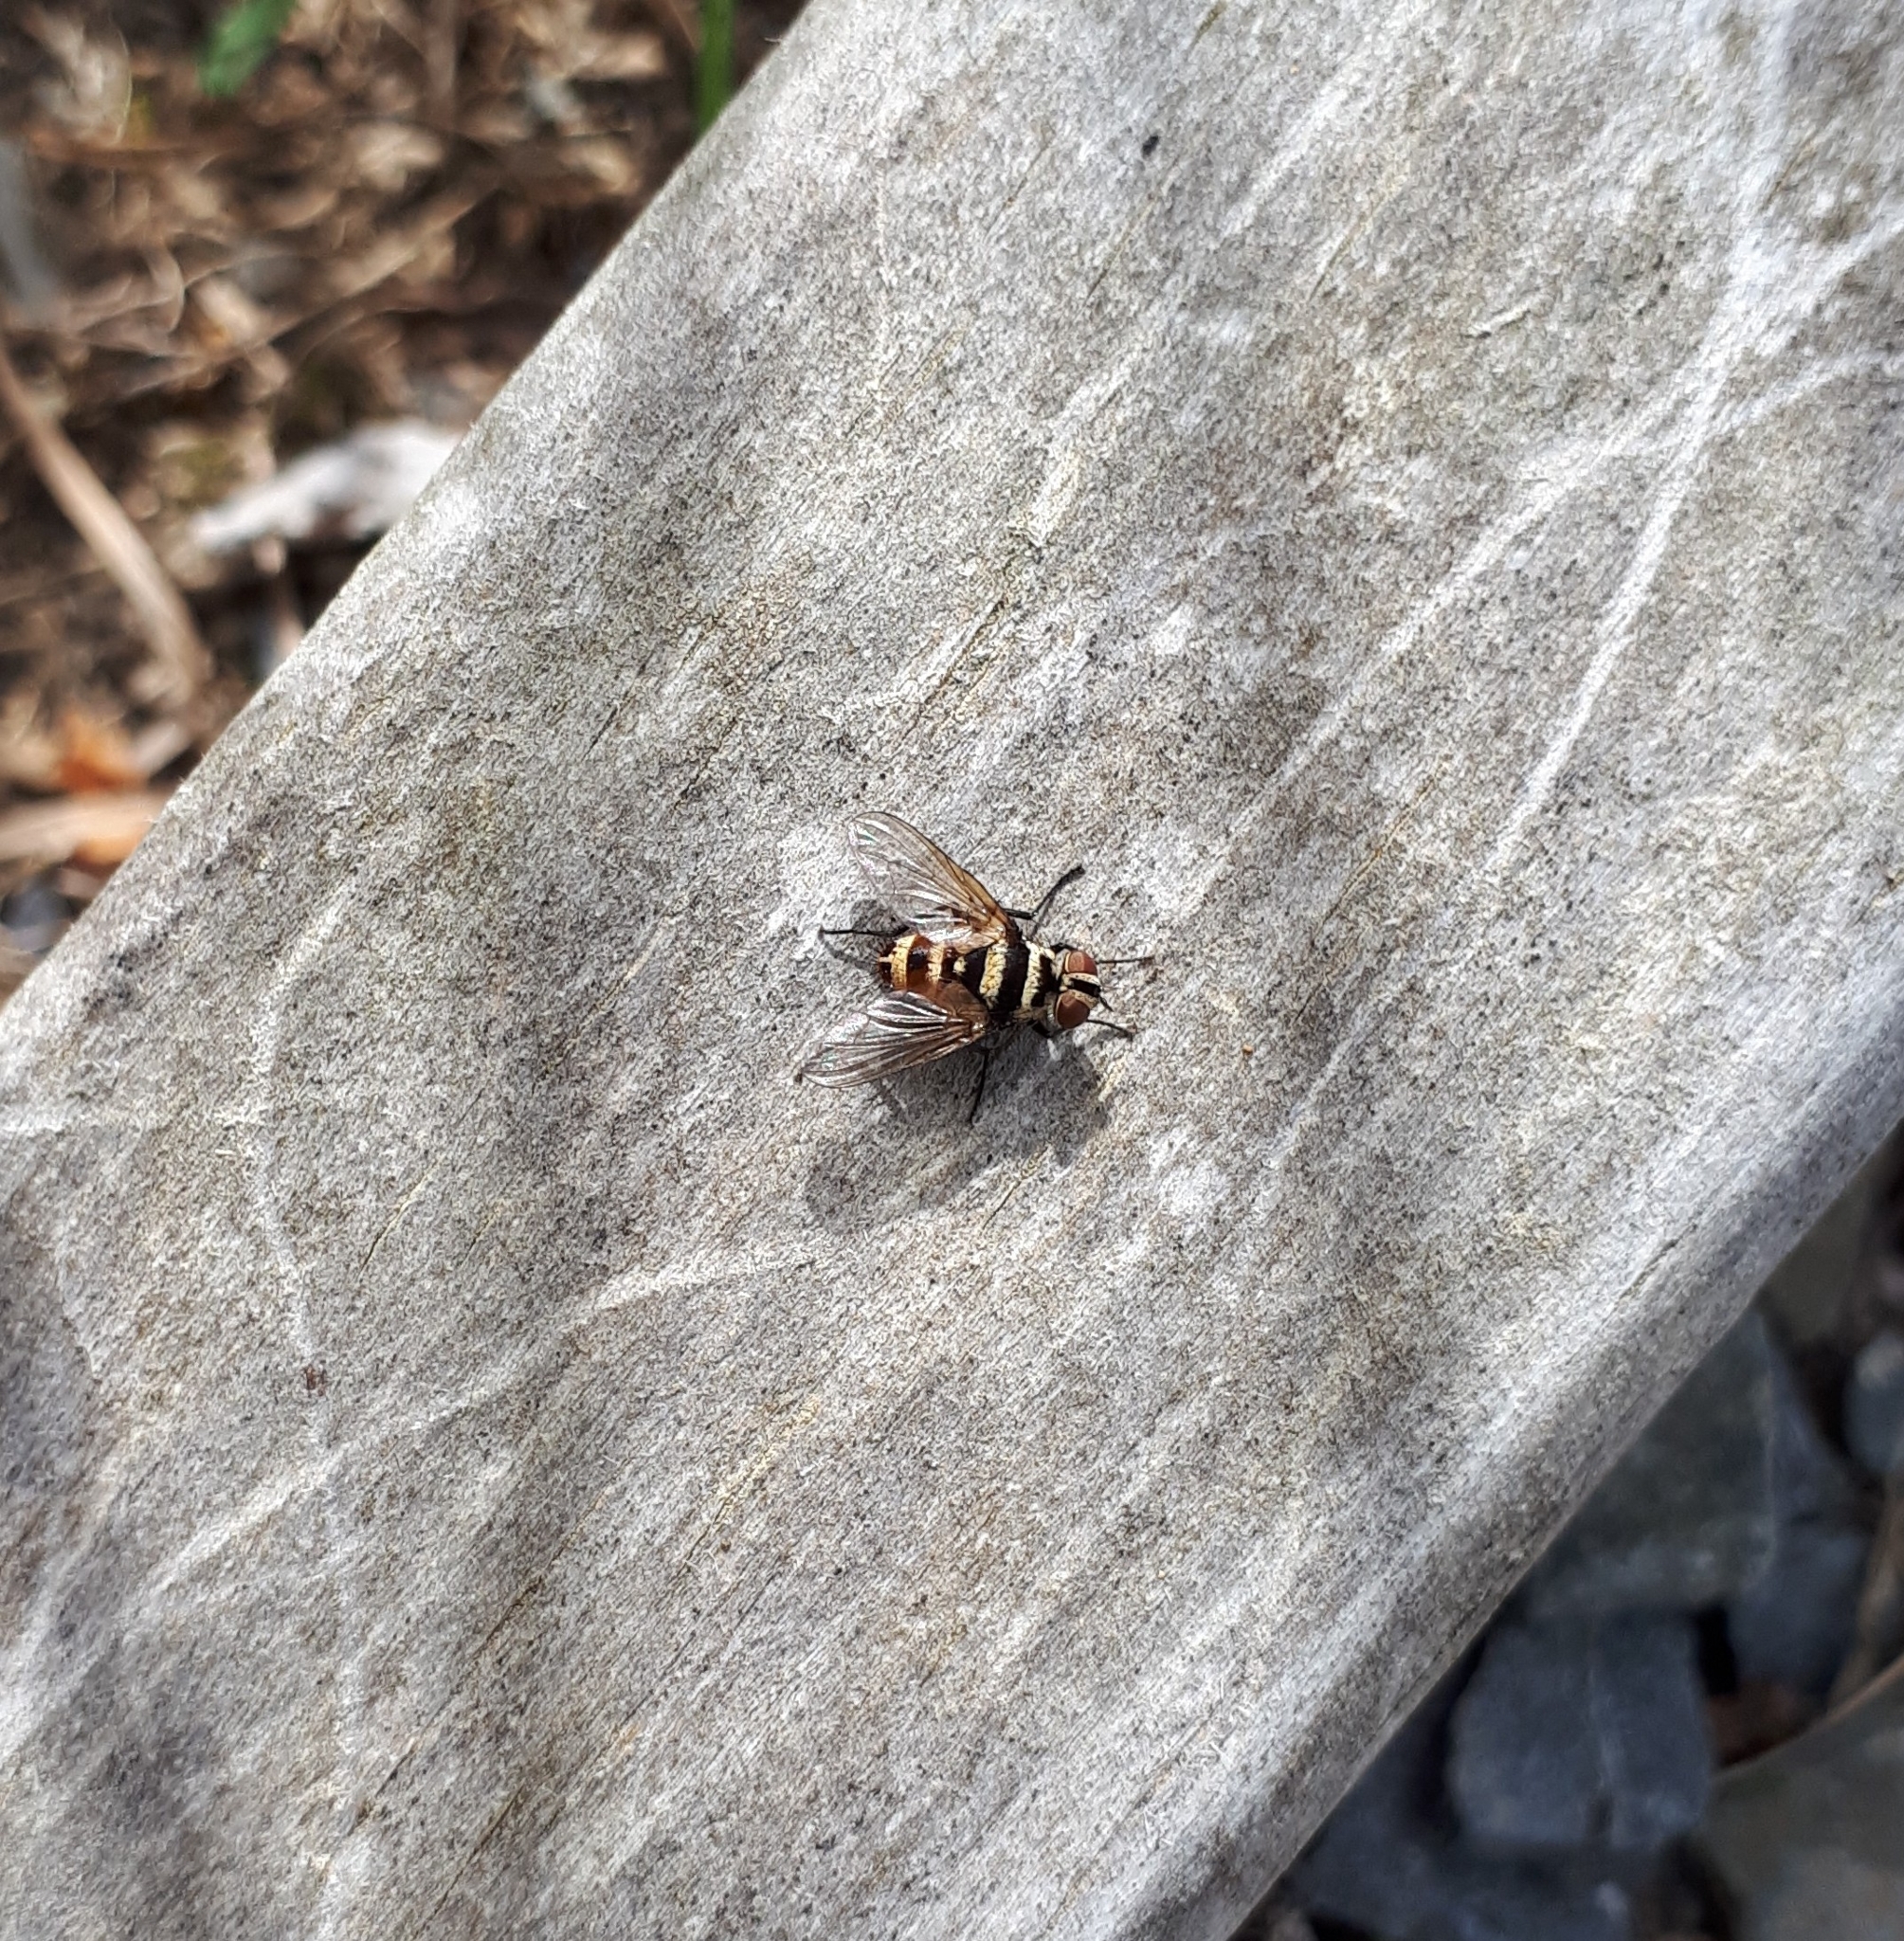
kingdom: Animalia
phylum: Arthropoda
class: Insecta
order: Diptera
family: Tachinidae
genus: Trigonospila
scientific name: Trigonospila brevifacies
